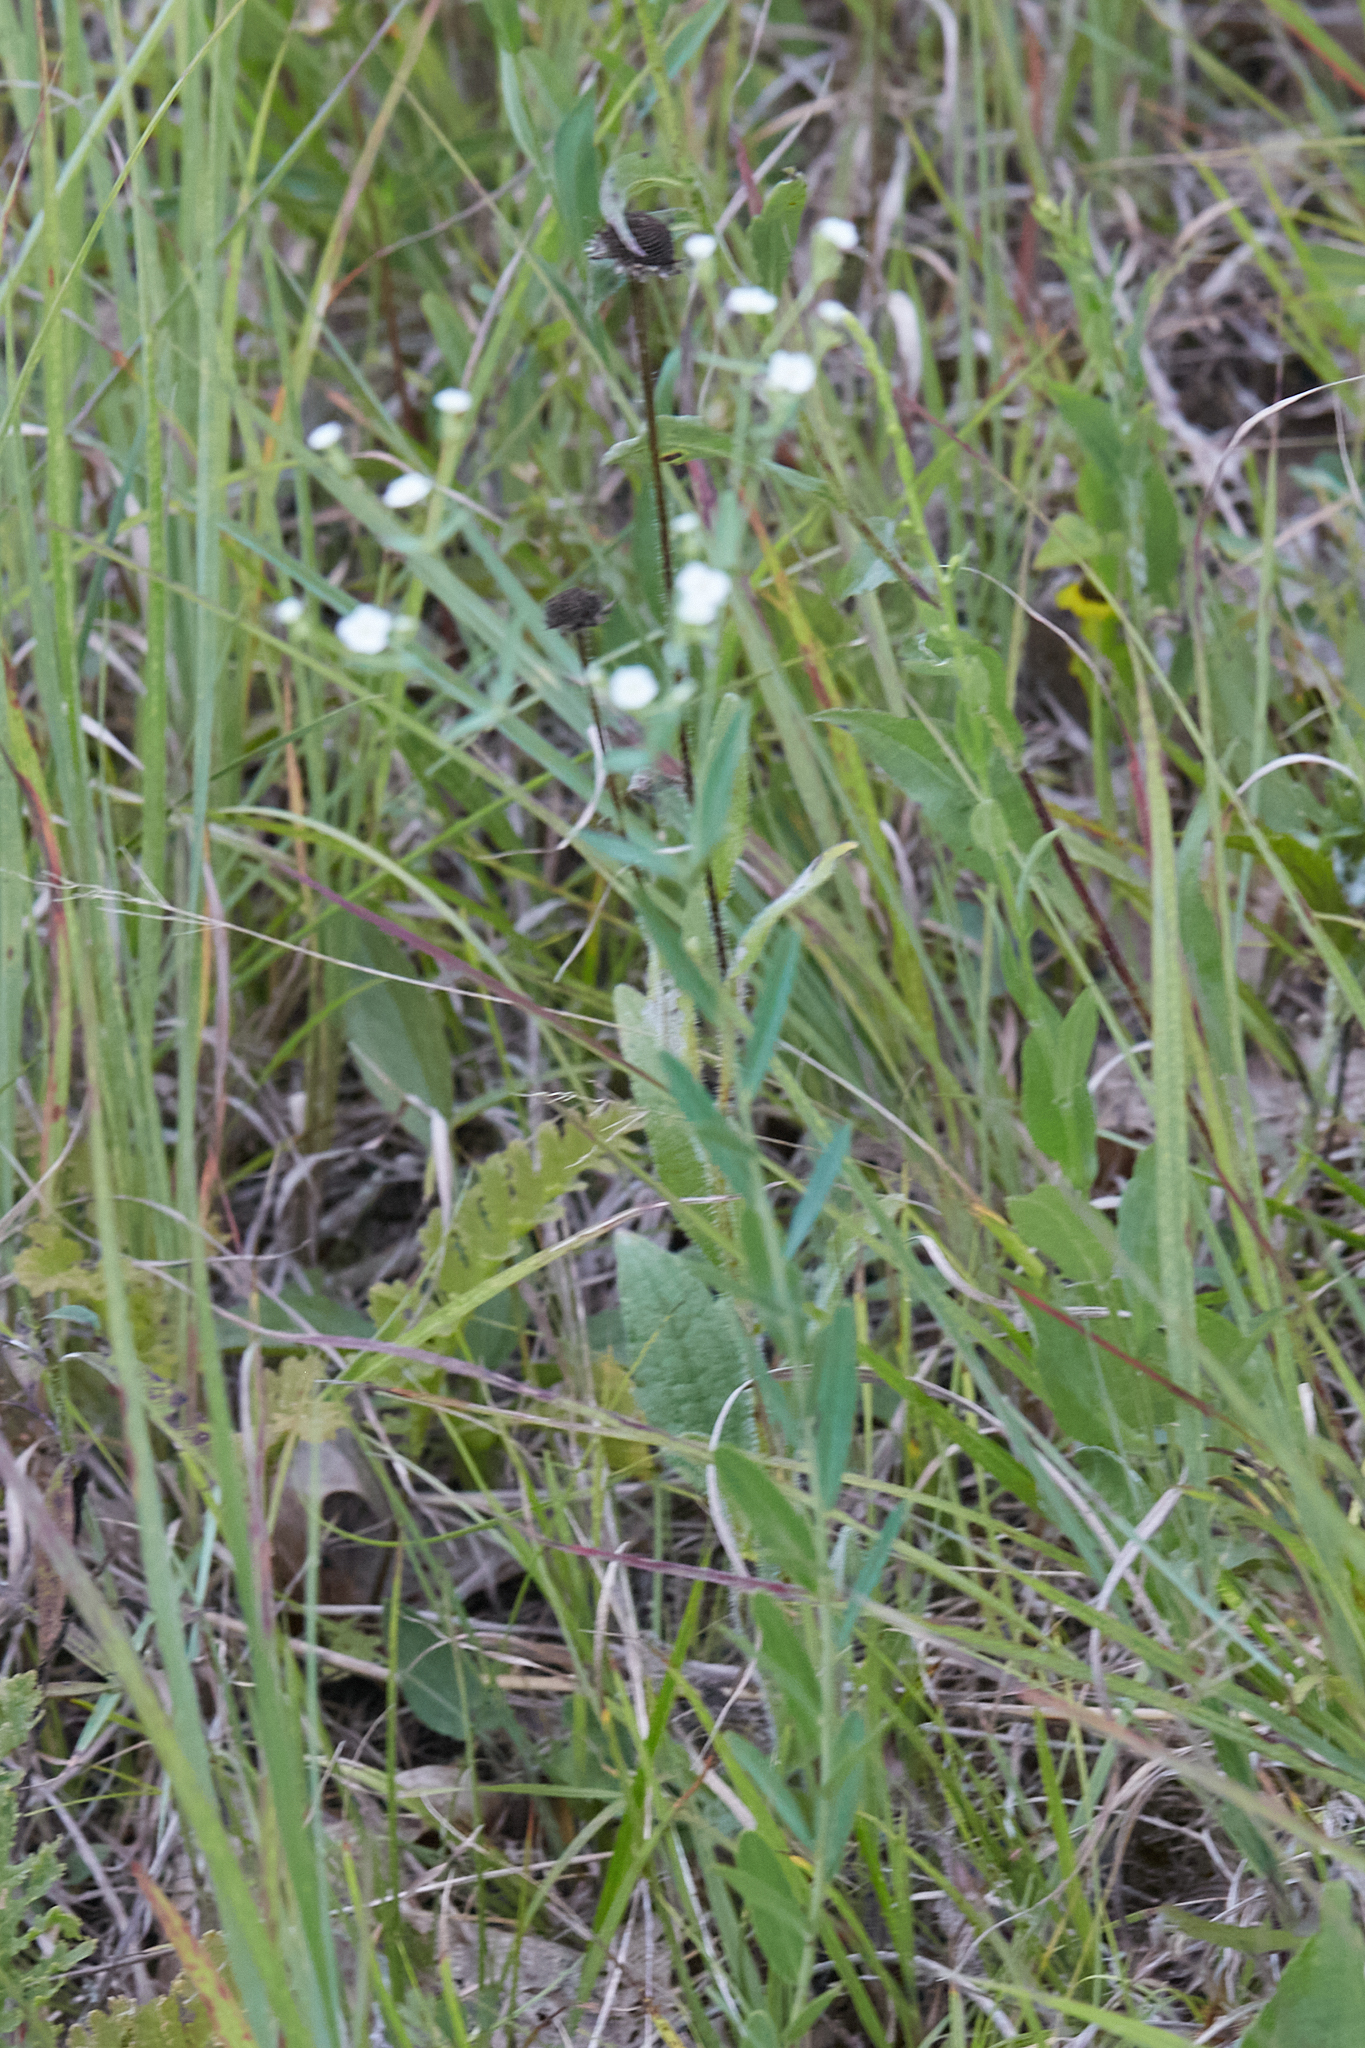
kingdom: Plantae
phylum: Tracheophyta
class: Magnoliopsida
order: Malpighiales
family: Euphorbiaceae
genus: Euphorbia
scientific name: Euphorbia corollata
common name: Flowering spurge
